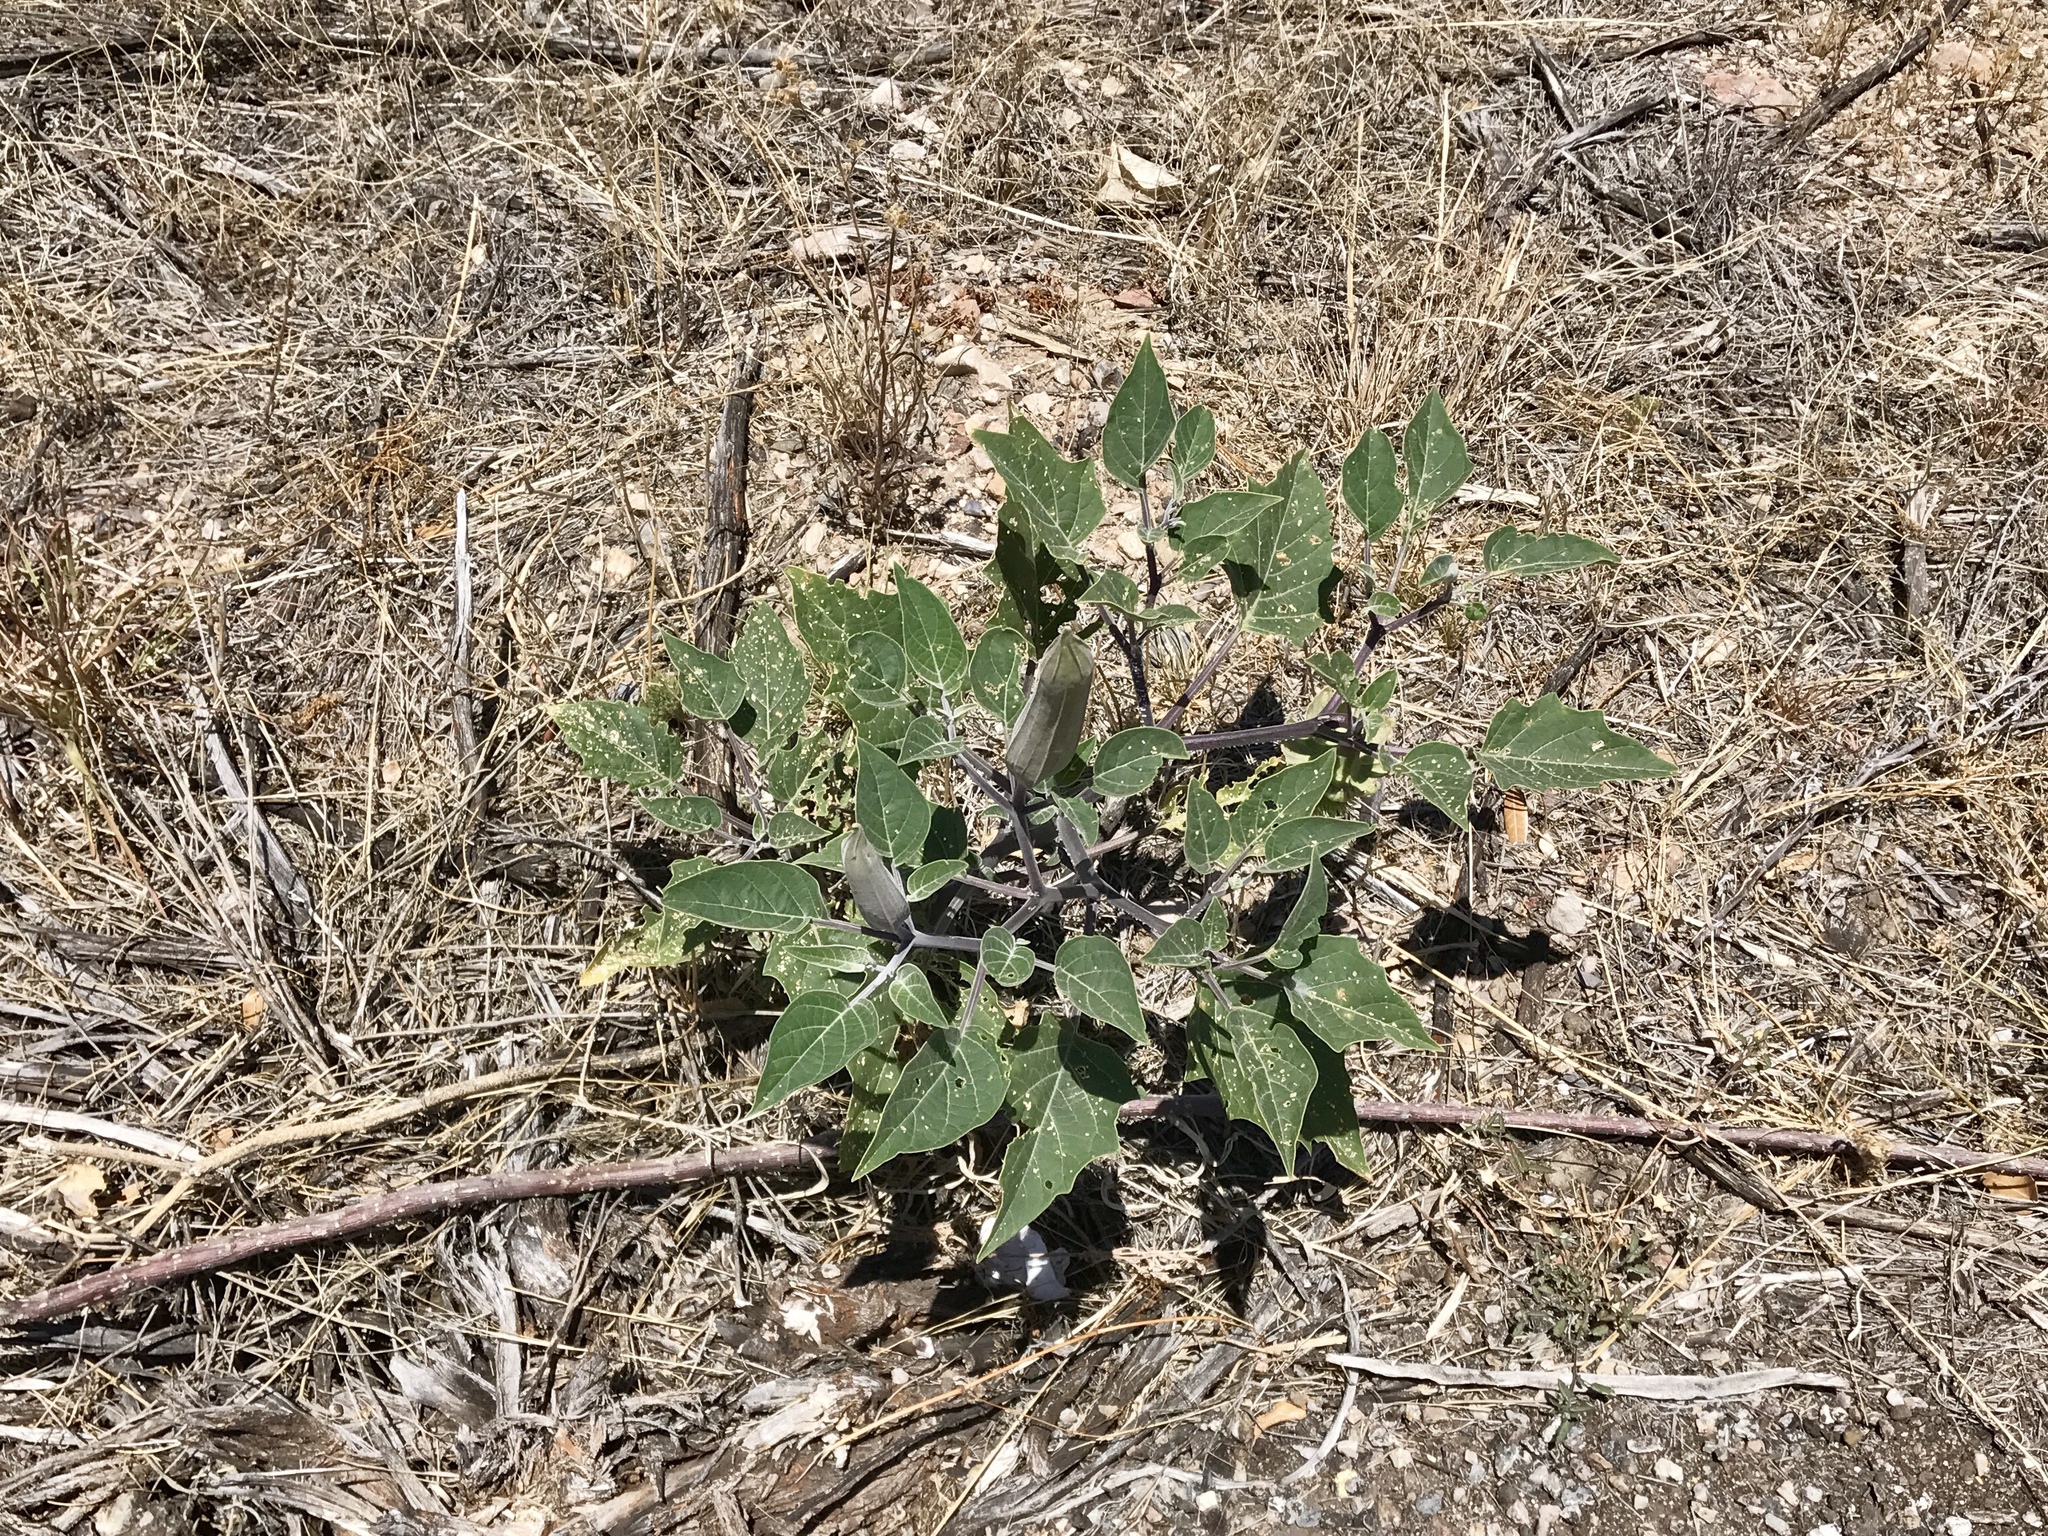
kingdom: Plantae
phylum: Tracheophyta
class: Magnoliopsida
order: Solanales
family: Solanaceae
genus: Datura
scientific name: Datura wrightii
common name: Sacred thorn-apple
